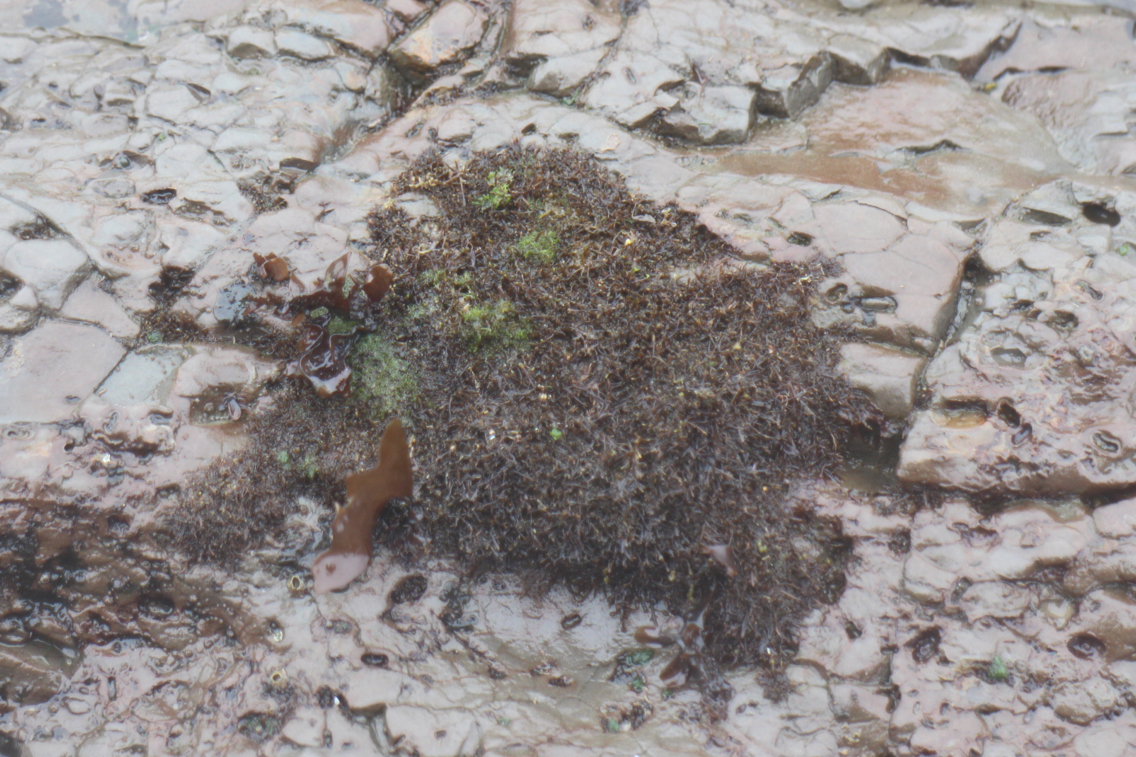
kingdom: Plantae
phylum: Chlorophyta
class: Ulvophyceae
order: Cladophorales
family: Cladophoraceae
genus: Cladophora
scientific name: Cladophora columbiana
